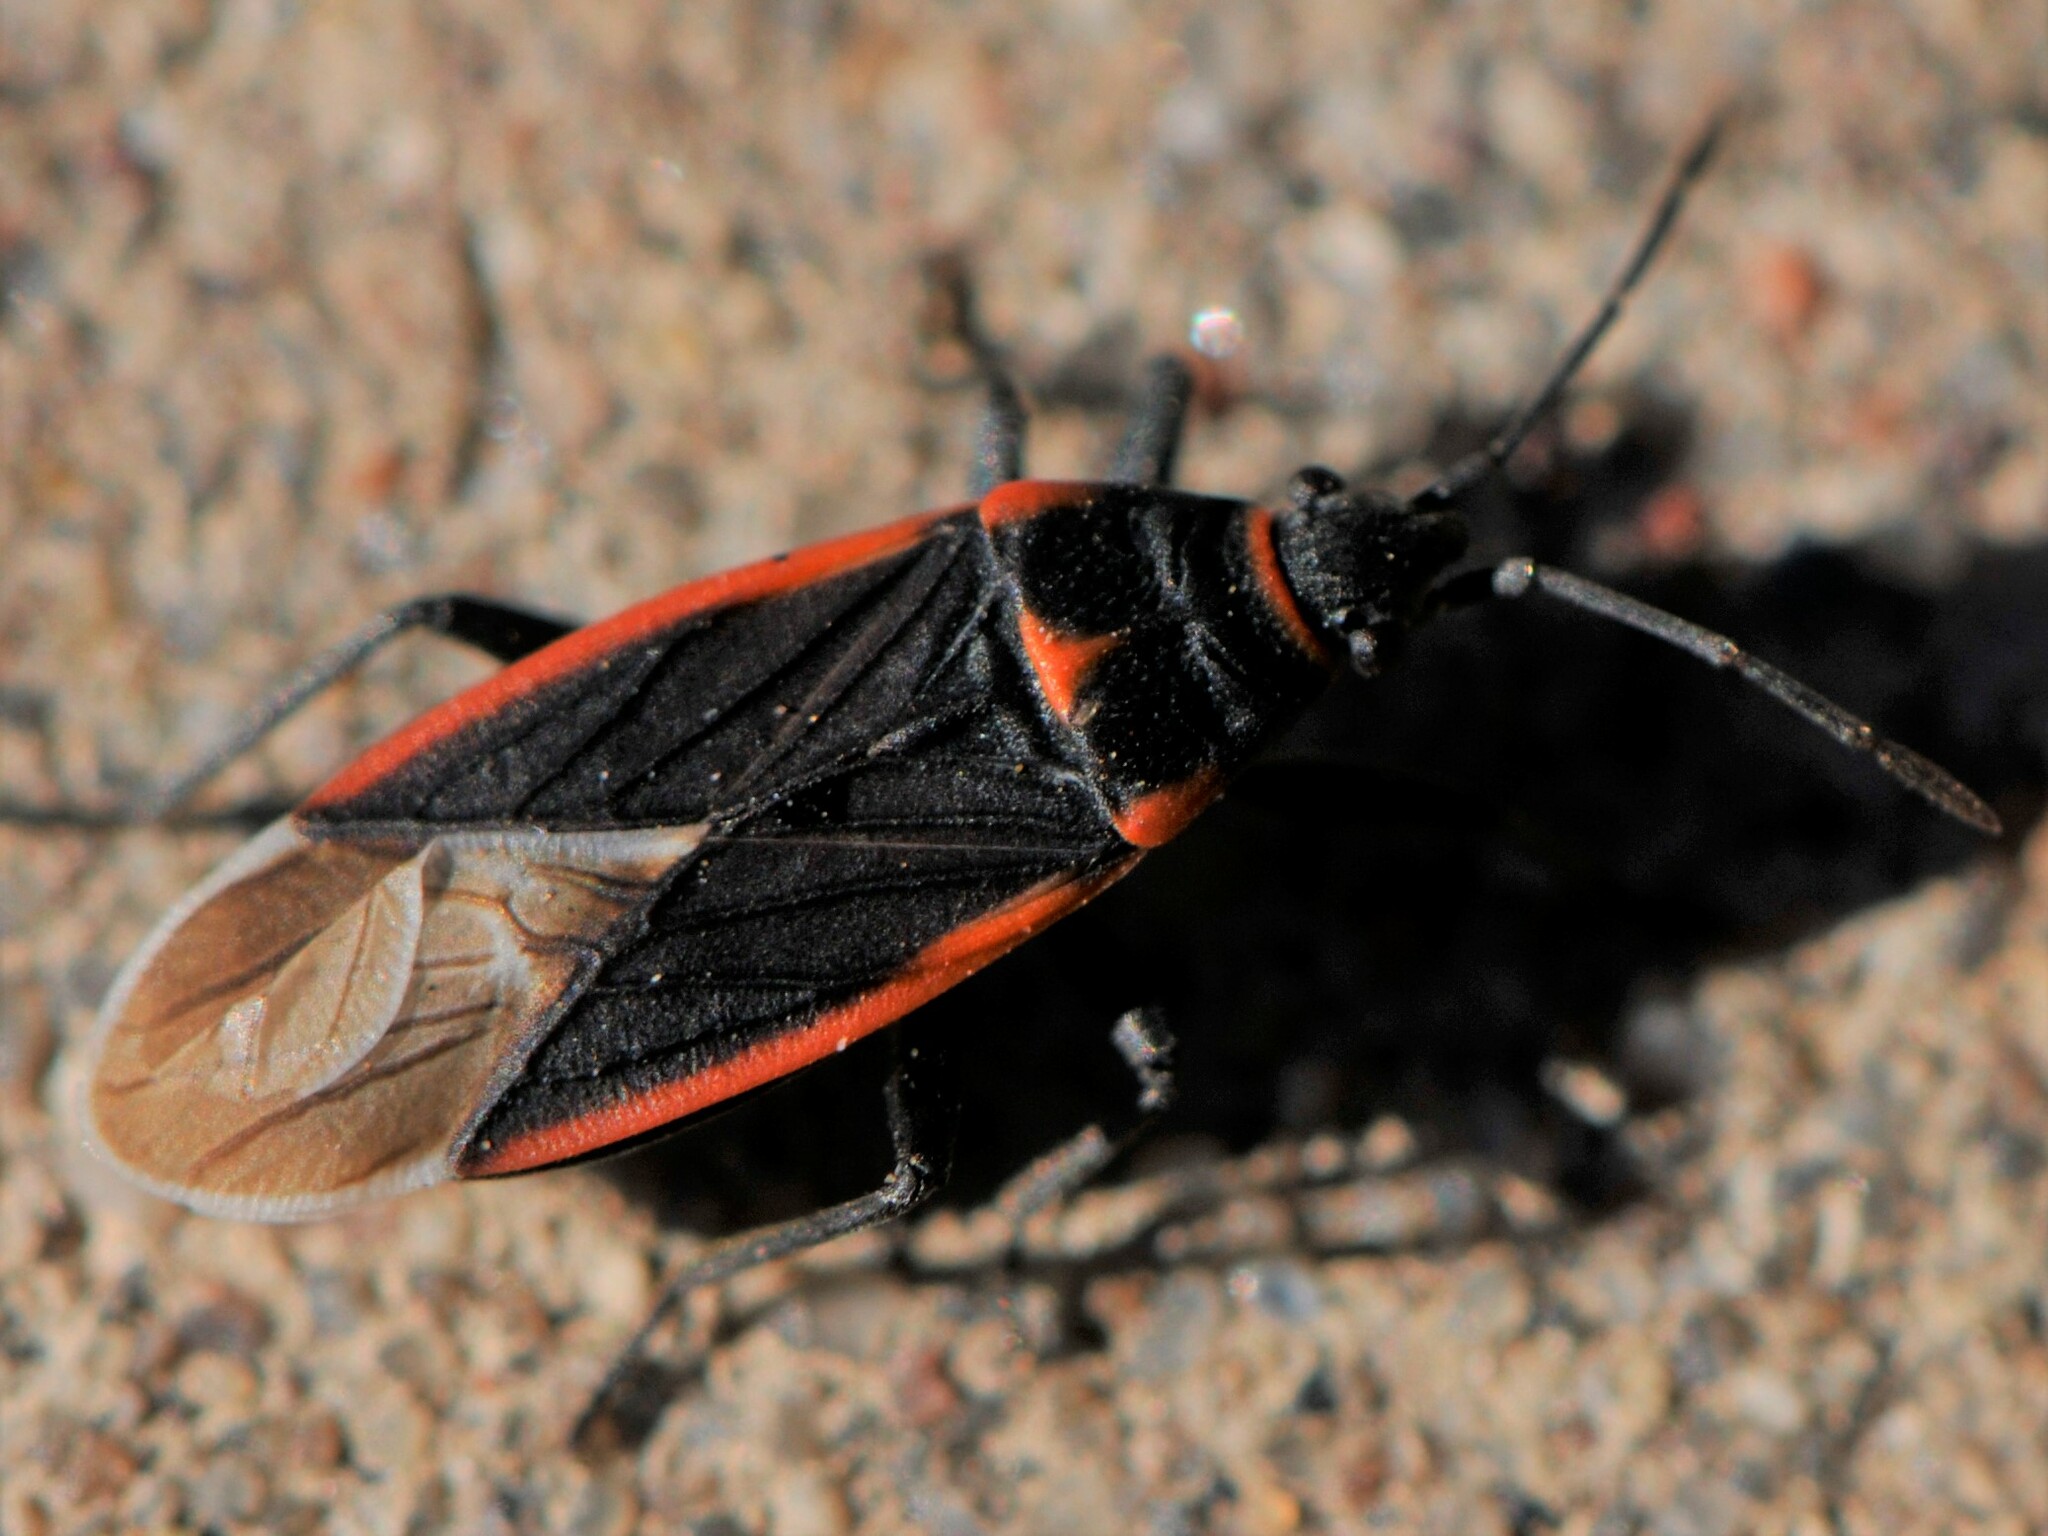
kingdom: Animalia
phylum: Arthropoda
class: Insecta
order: Hemiptera
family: Lygaeidae
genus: Melacoryphus
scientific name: Melacoryphus lateralis
